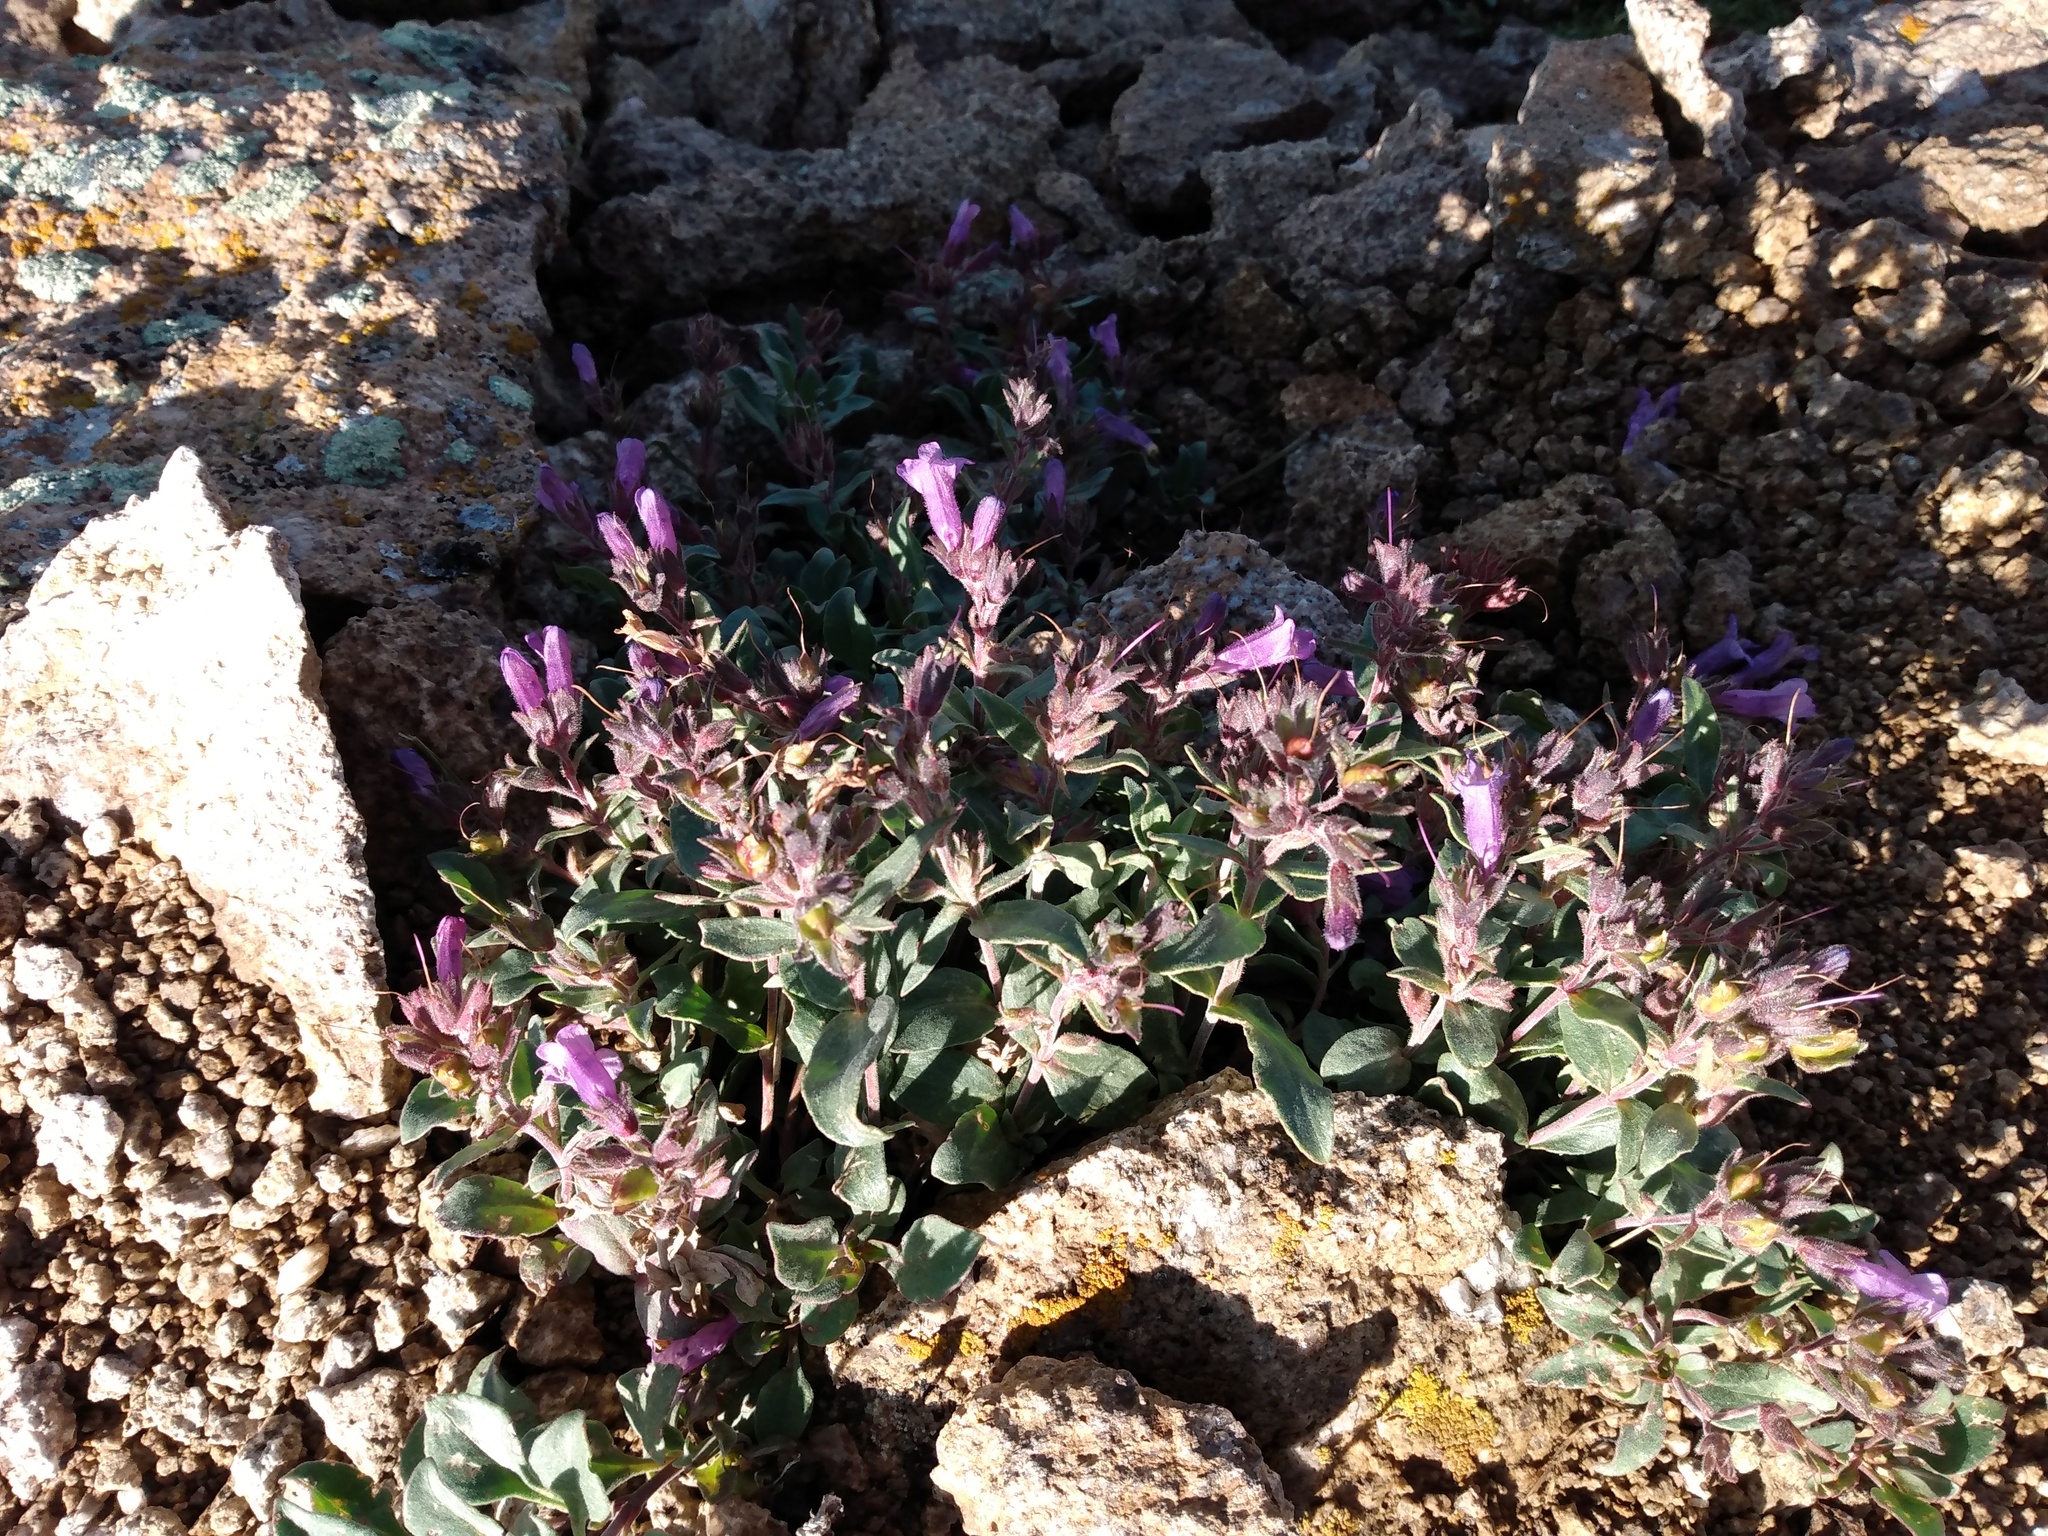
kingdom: Plantae
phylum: Tracheophyta
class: Magnoliopsida
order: Lamiales
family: Plantaginaceae
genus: Penstemon
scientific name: Penstemon harbourii
